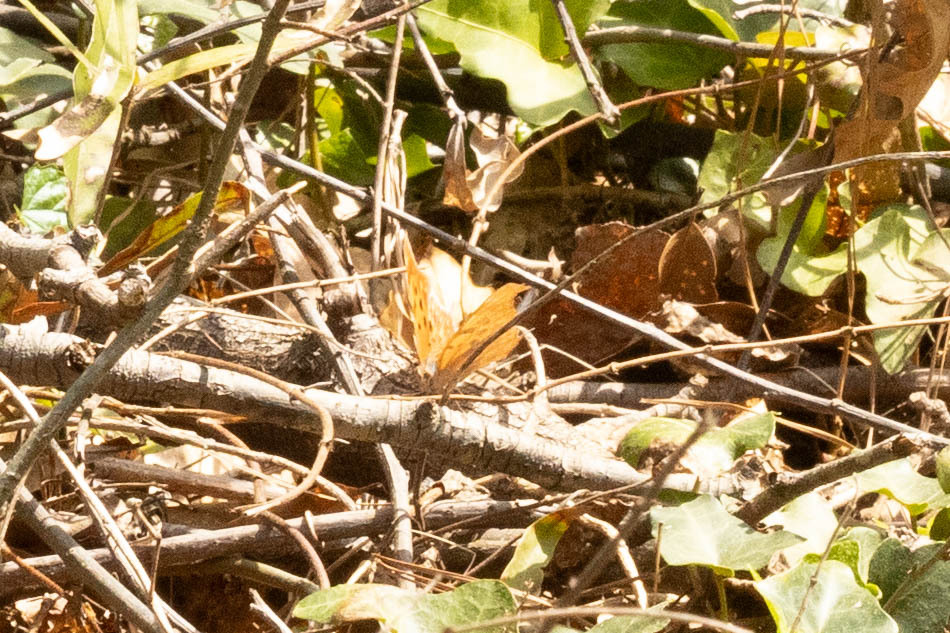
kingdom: Animalia
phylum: Arthropoda
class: Insecta
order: Lepidoptera
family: Nymphalidae
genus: Polygonia
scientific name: Polygonia interrogationis
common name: Question mark
